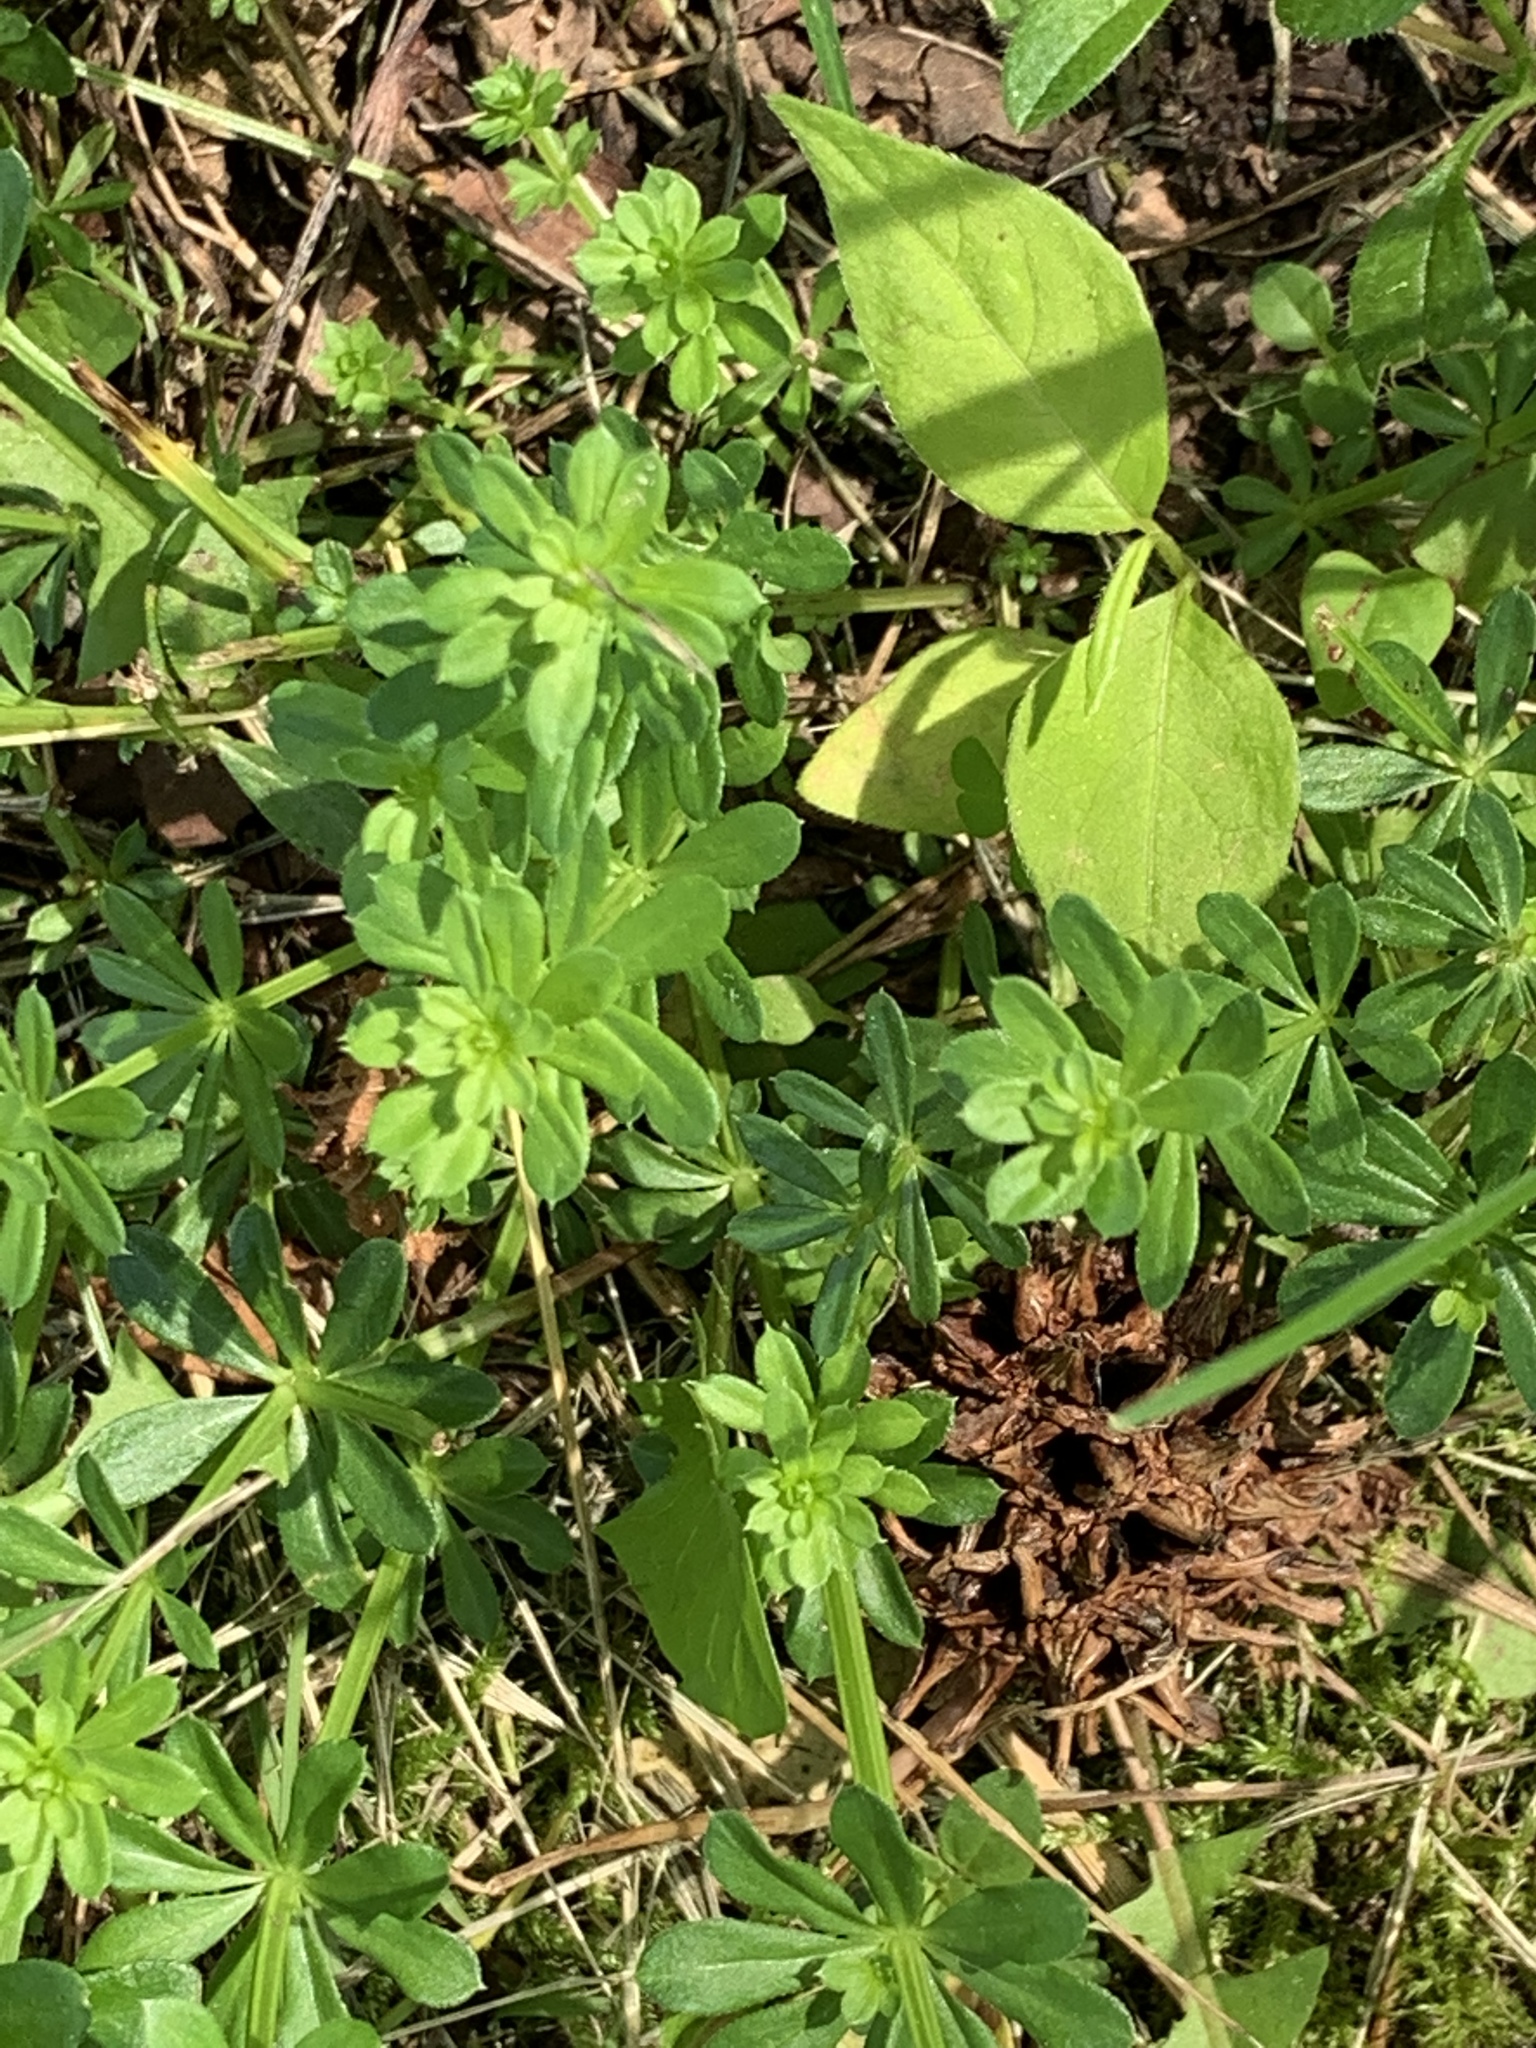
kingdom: Plantae
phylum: Tracheophyta
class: Magnoliopsida
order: Gentianales
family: Rubiaceae
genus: Galium
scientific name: Galium mollugo
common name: Hedge bedstraw
